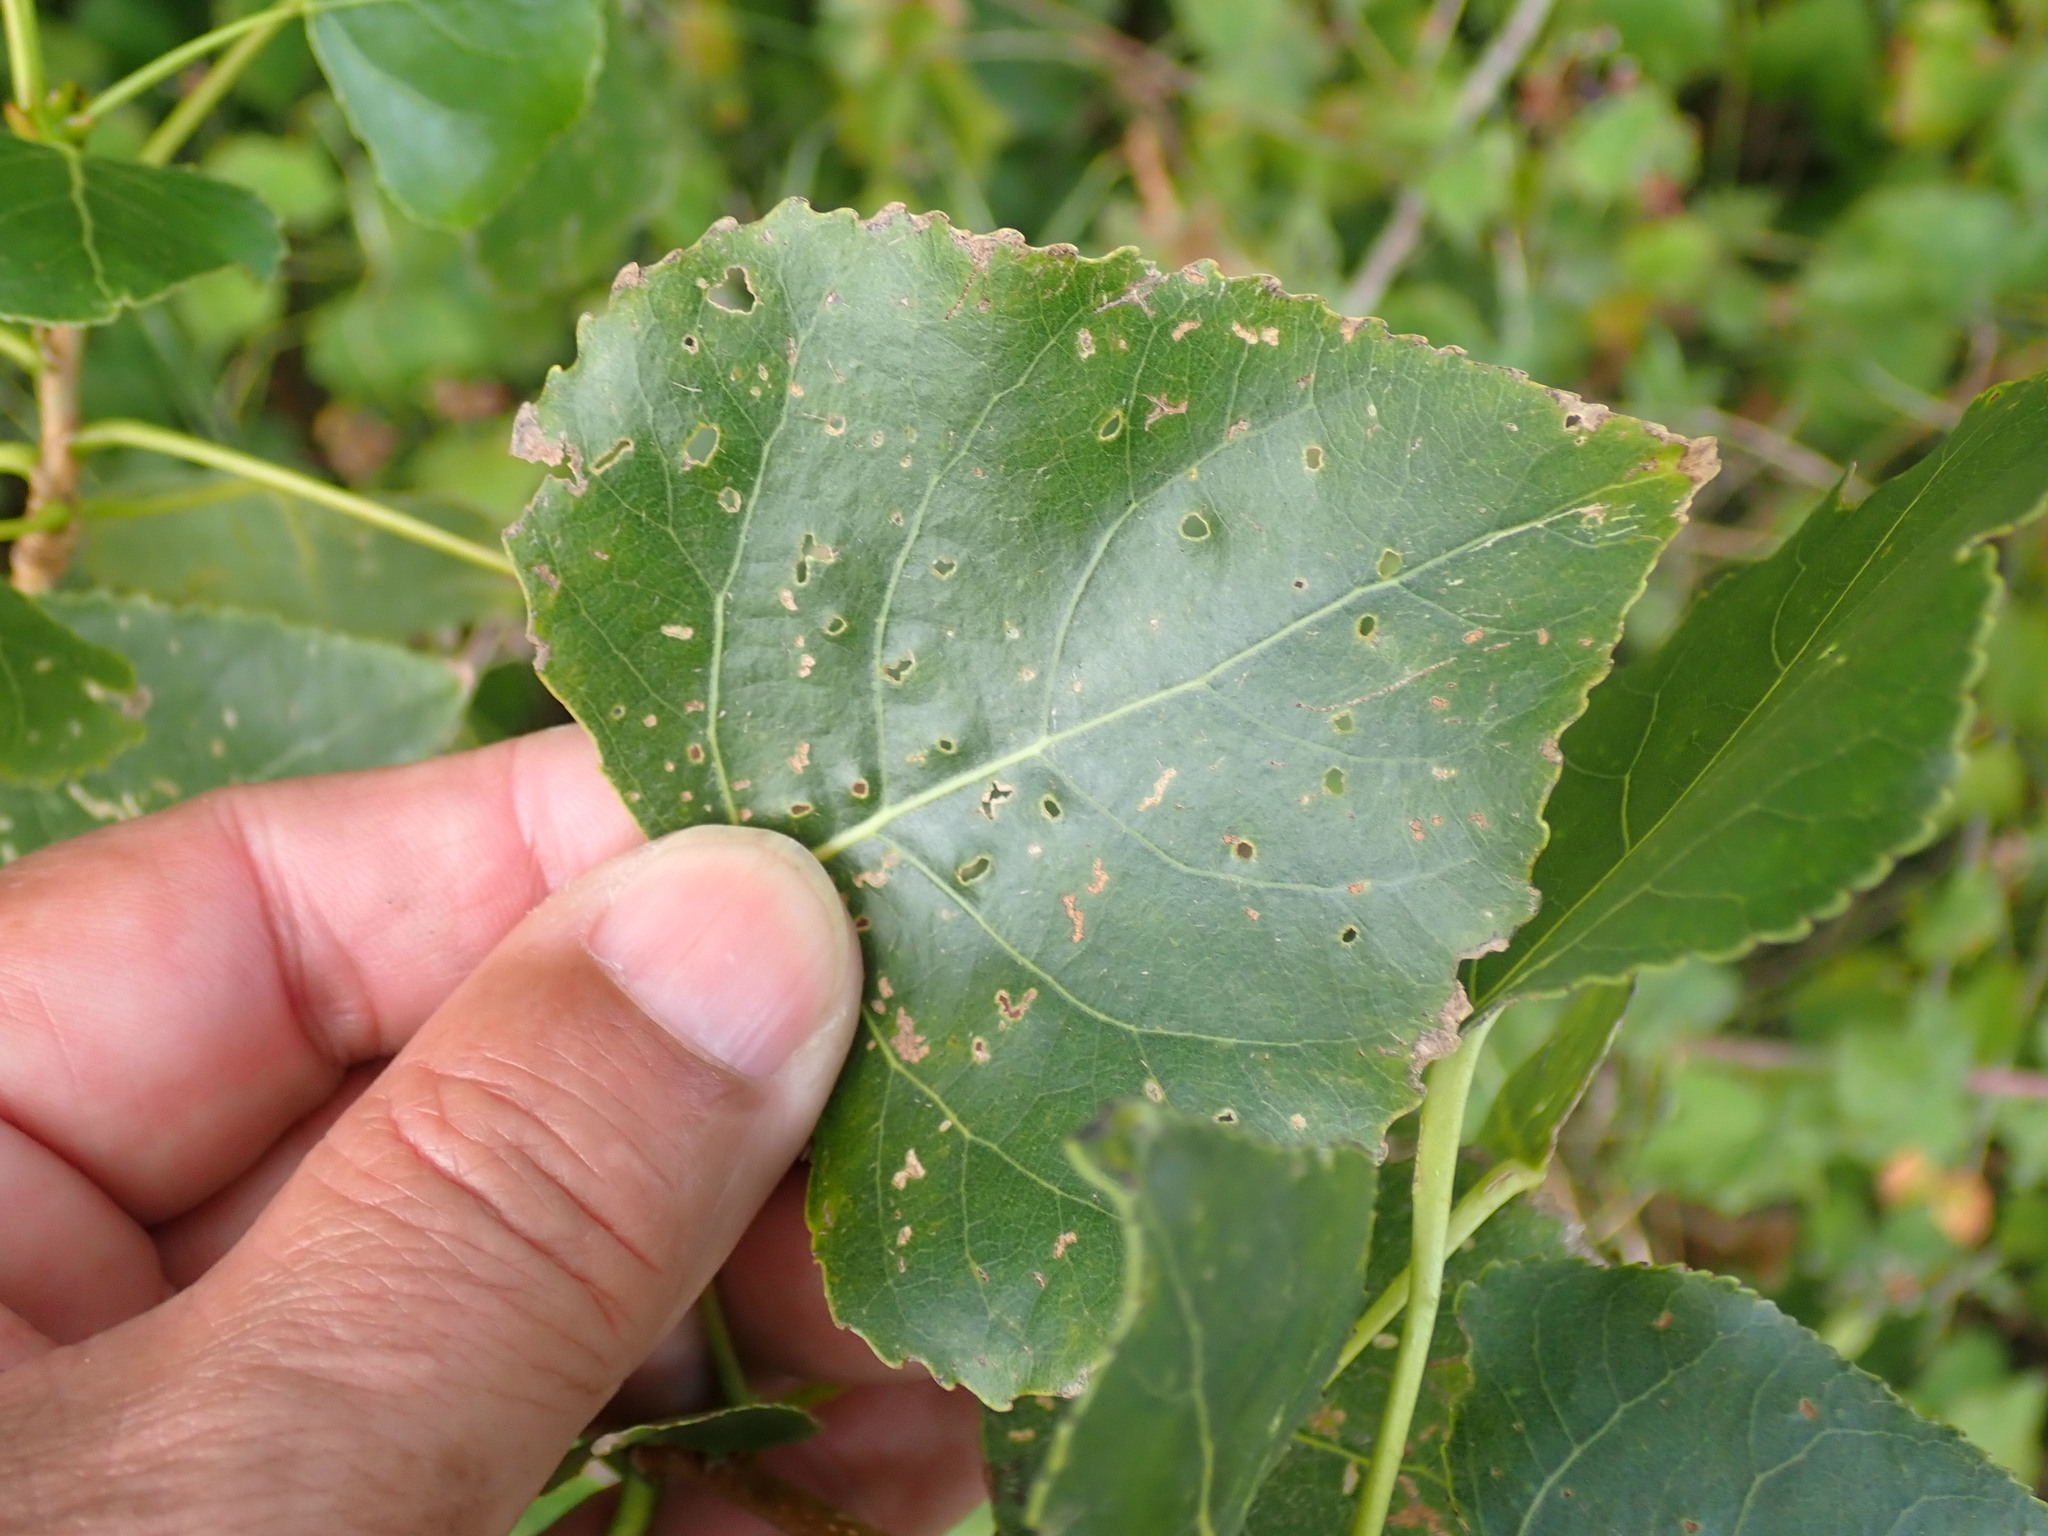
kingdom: Plantae
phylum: Tracheophyta
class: Magnoliopsida
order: Malpighiales
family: Salicaceae
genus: Populus
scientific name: Populus canadensis
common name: Carolina poplar
